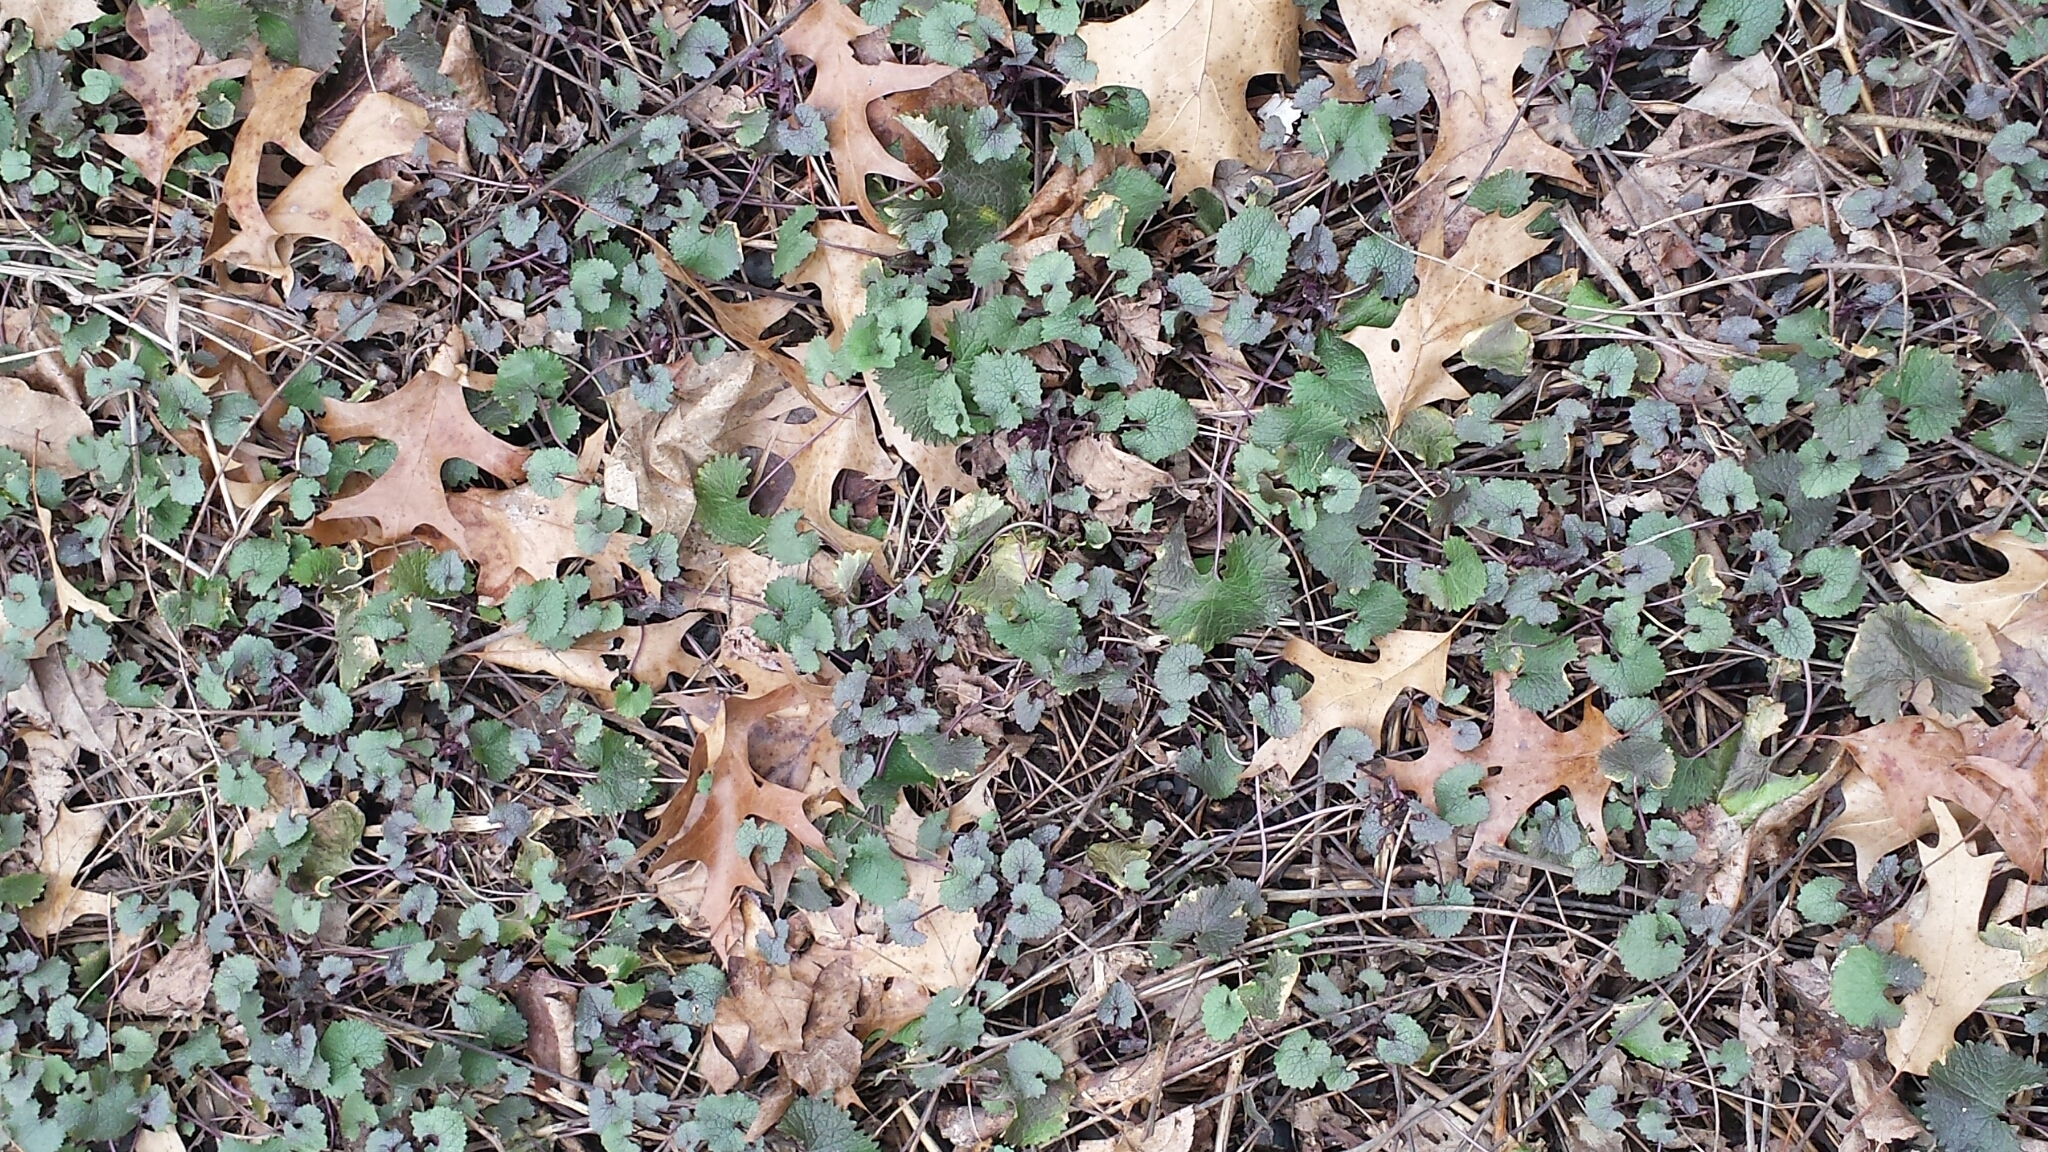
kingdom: Plantae
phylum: Tracheophyta
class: Magnoliopsida
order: Brassicales
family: Brassicaceae
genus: Alliaria
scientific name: Alliaria petiolata
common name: Garlic mustard
